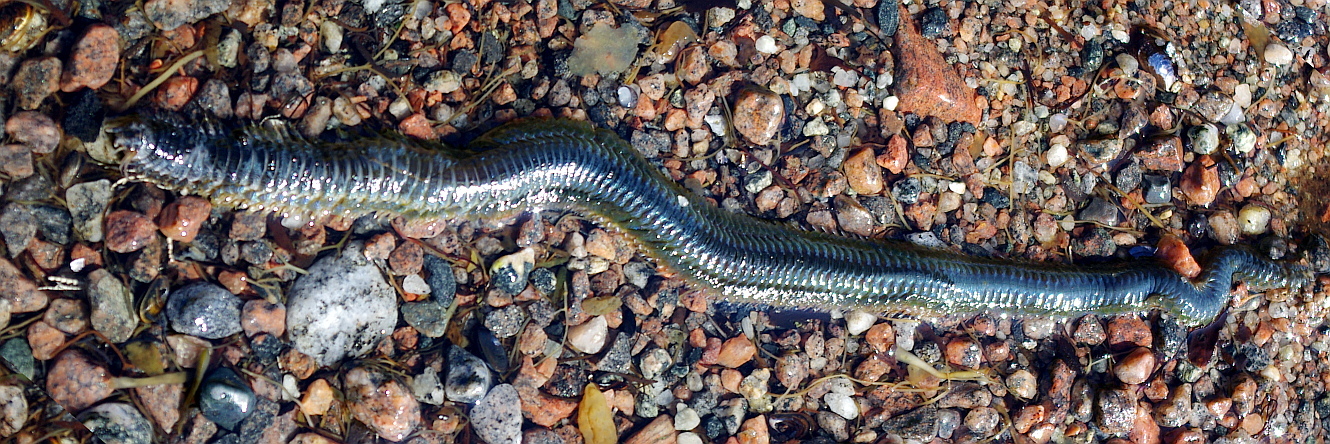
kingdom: Animalia
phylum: Annelida
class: Polychaeta
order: Phyllodocida
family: Nereididae
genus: Alitta
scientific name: Alitta virens
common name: King ragworm
